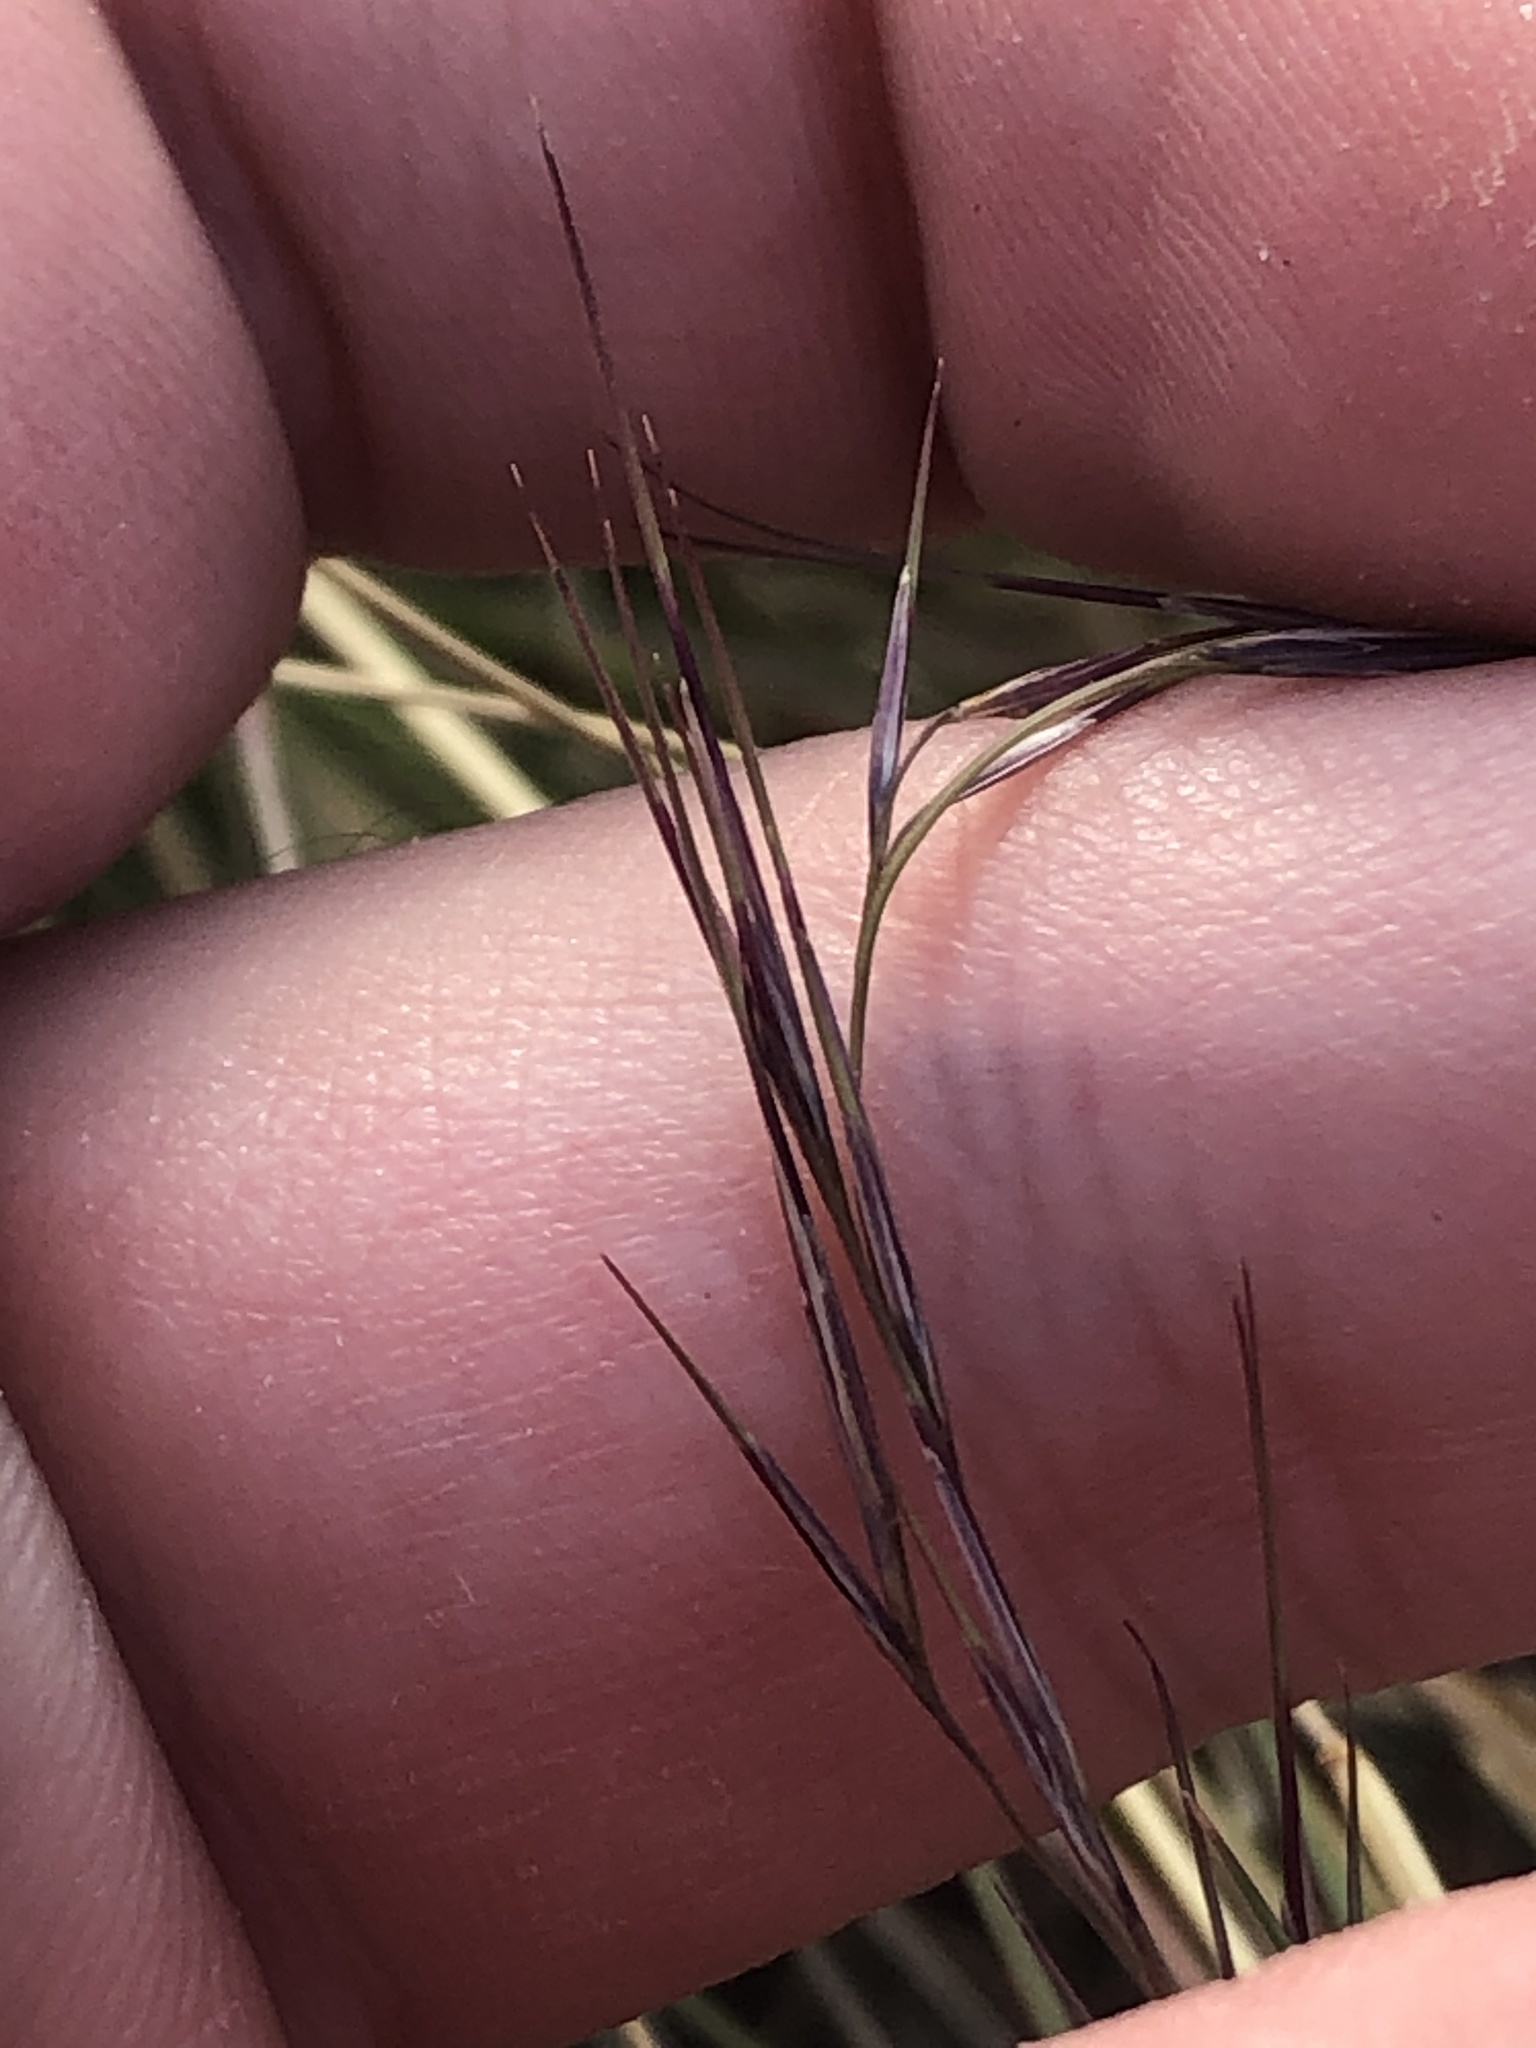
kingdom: Plantae
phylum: Tracheophyta
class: Liliopsida
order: Poales
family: Poaceae
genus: Aristida
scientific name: Aristida adscensionis
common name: Sixweeks threeawn
